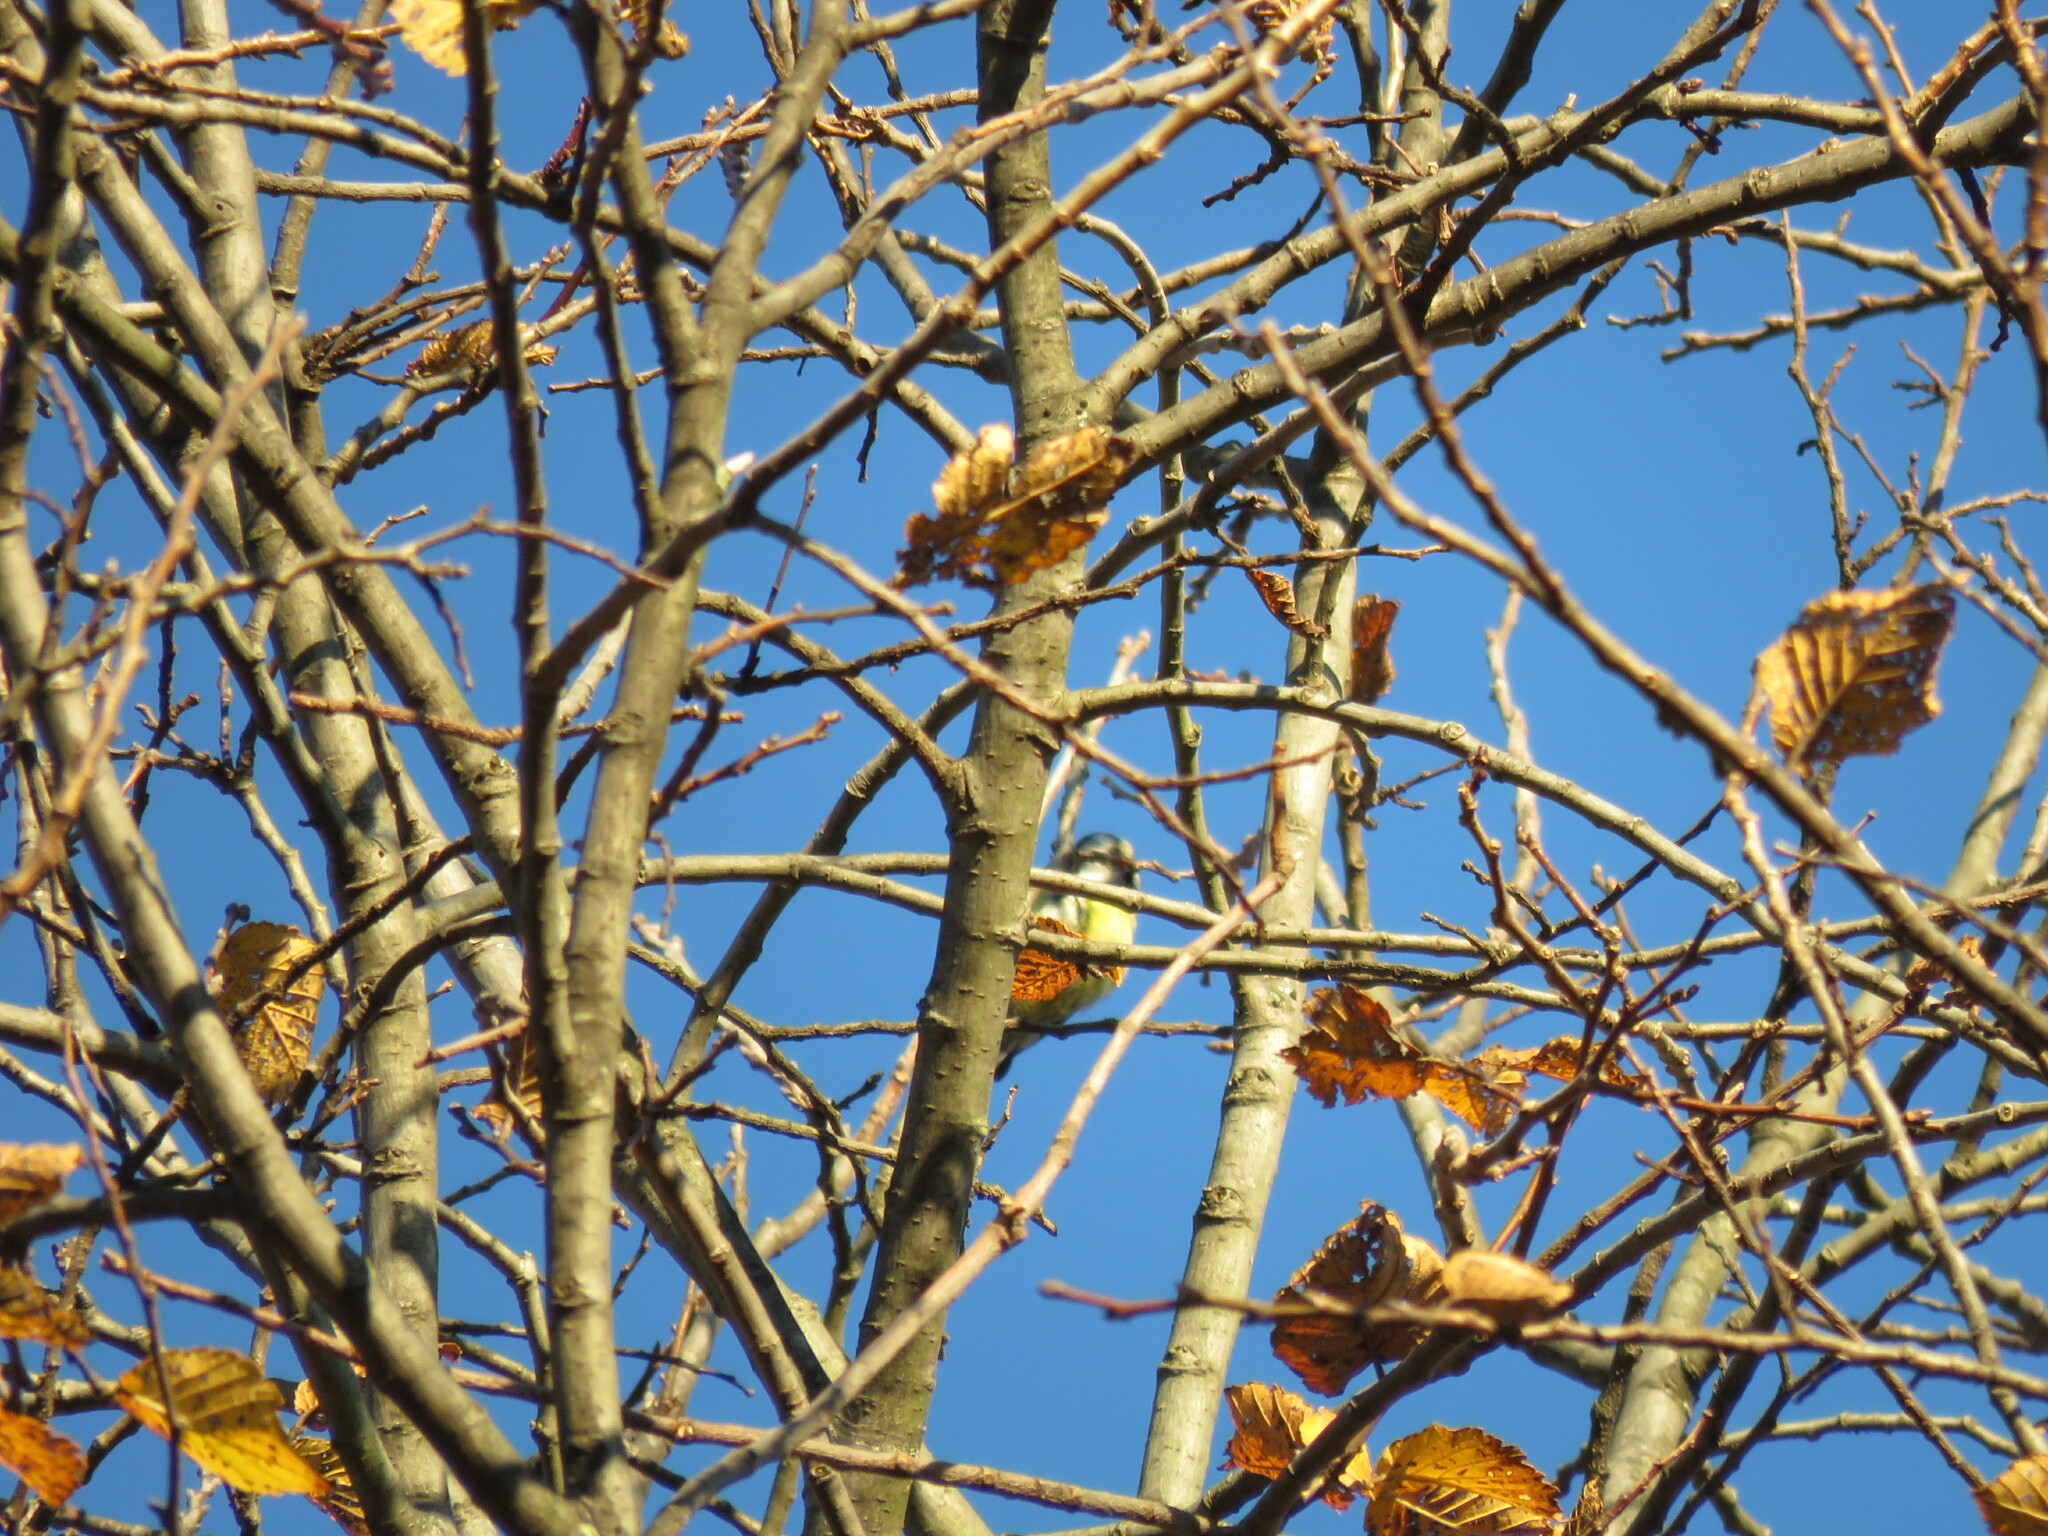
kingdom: Animalia
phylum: Chordata
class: Aves
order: Passeriformes
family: Paridae
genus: Cyanistes
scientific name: Cyanistes caeruleus
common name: Eurasian blue tit
